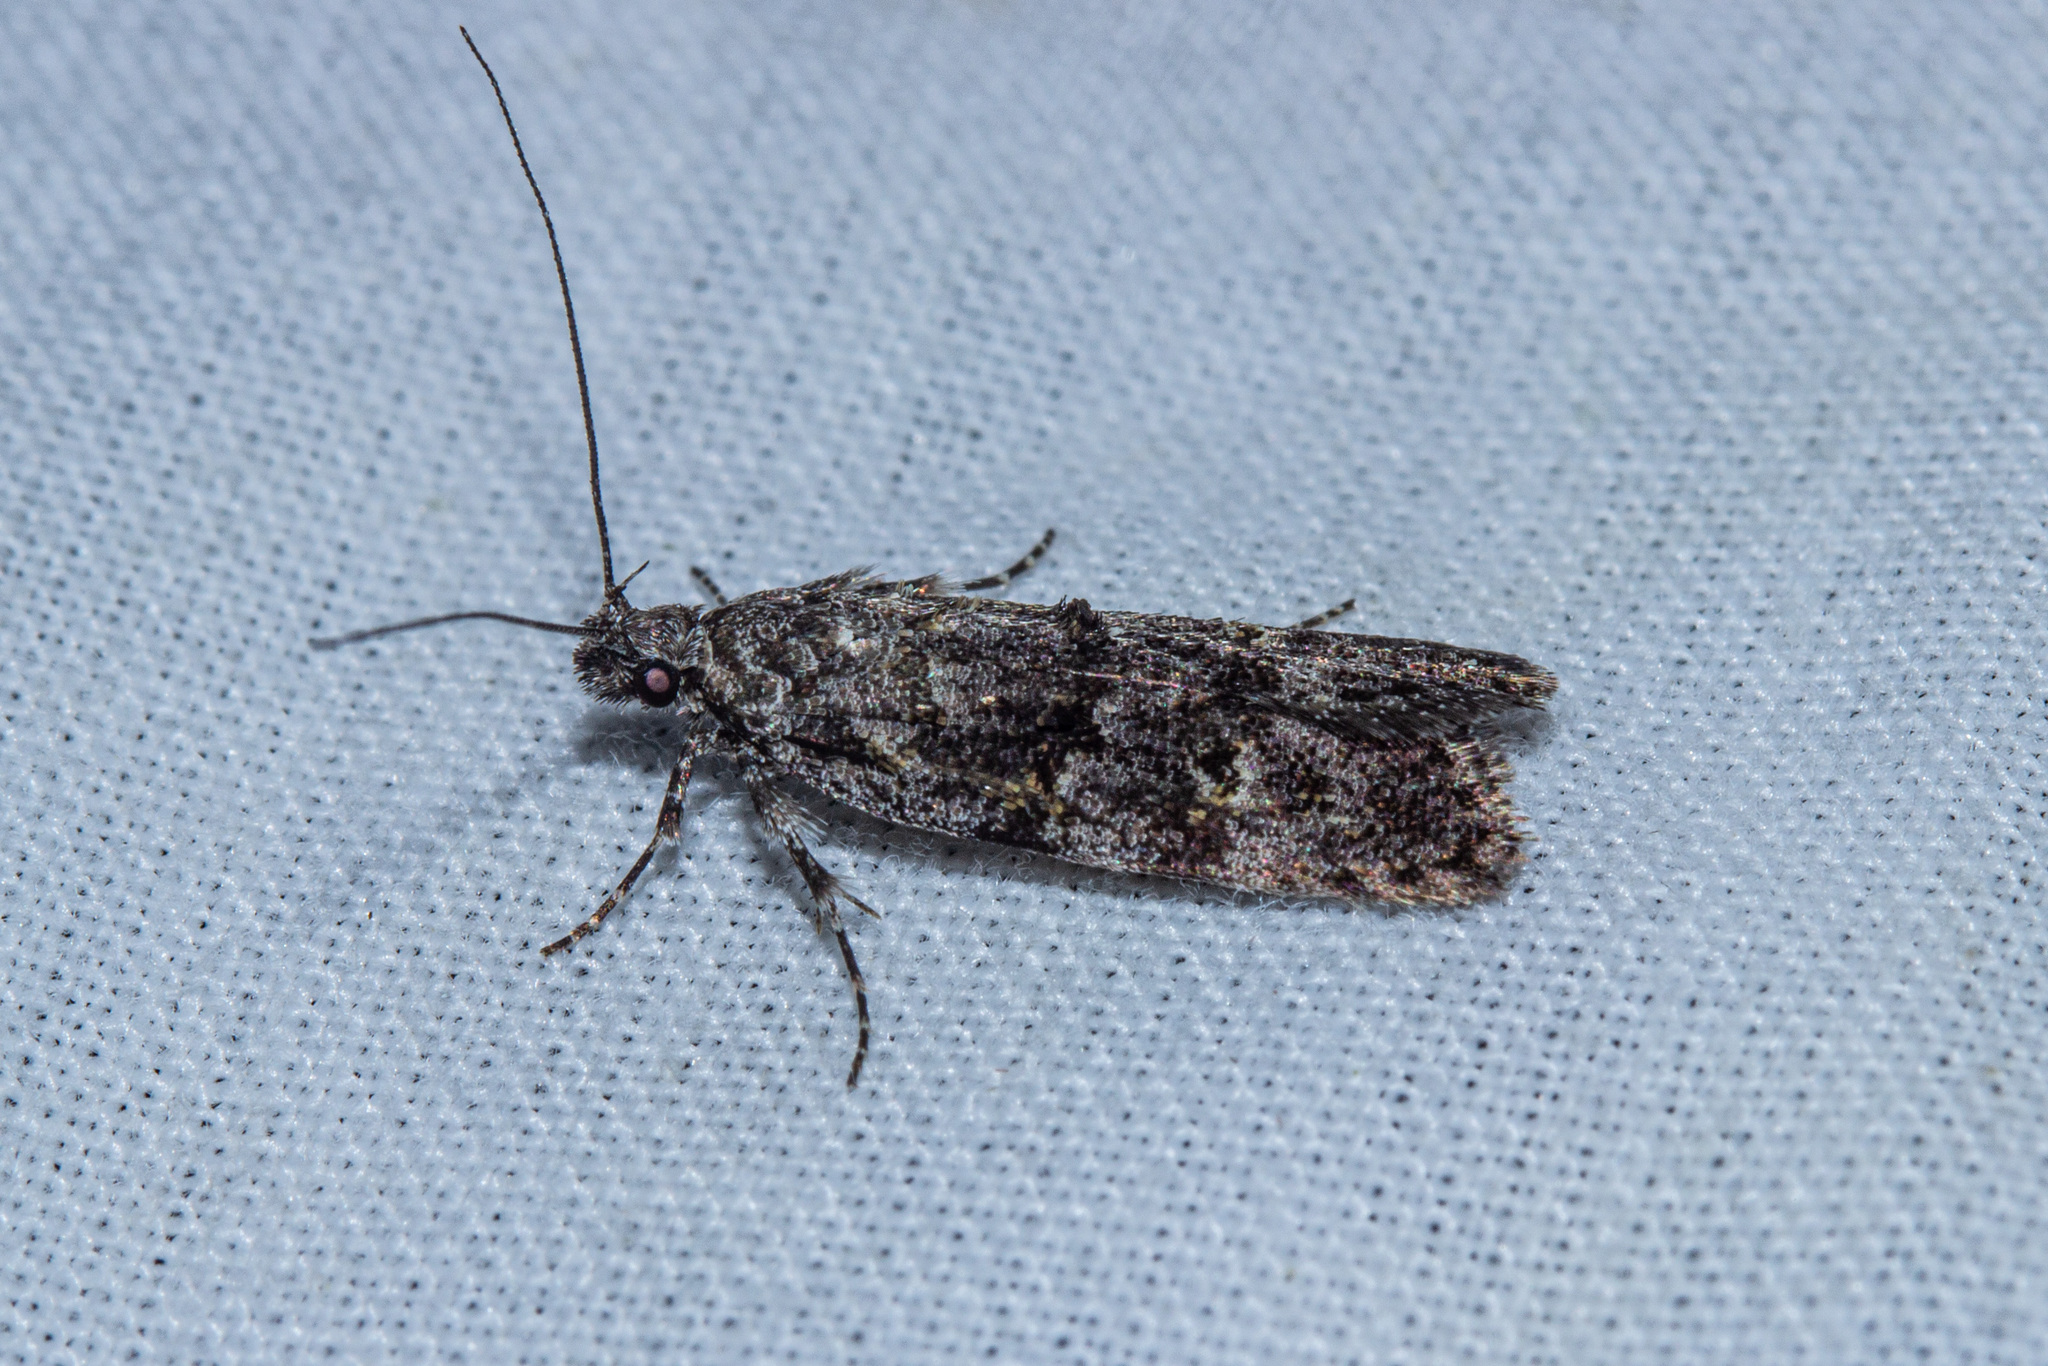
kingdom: Animalia
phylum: Arthropoda
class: Insecta
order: Lepidoptera
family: Oecophoridae
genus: Izatha
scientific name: Izatha copiosella
